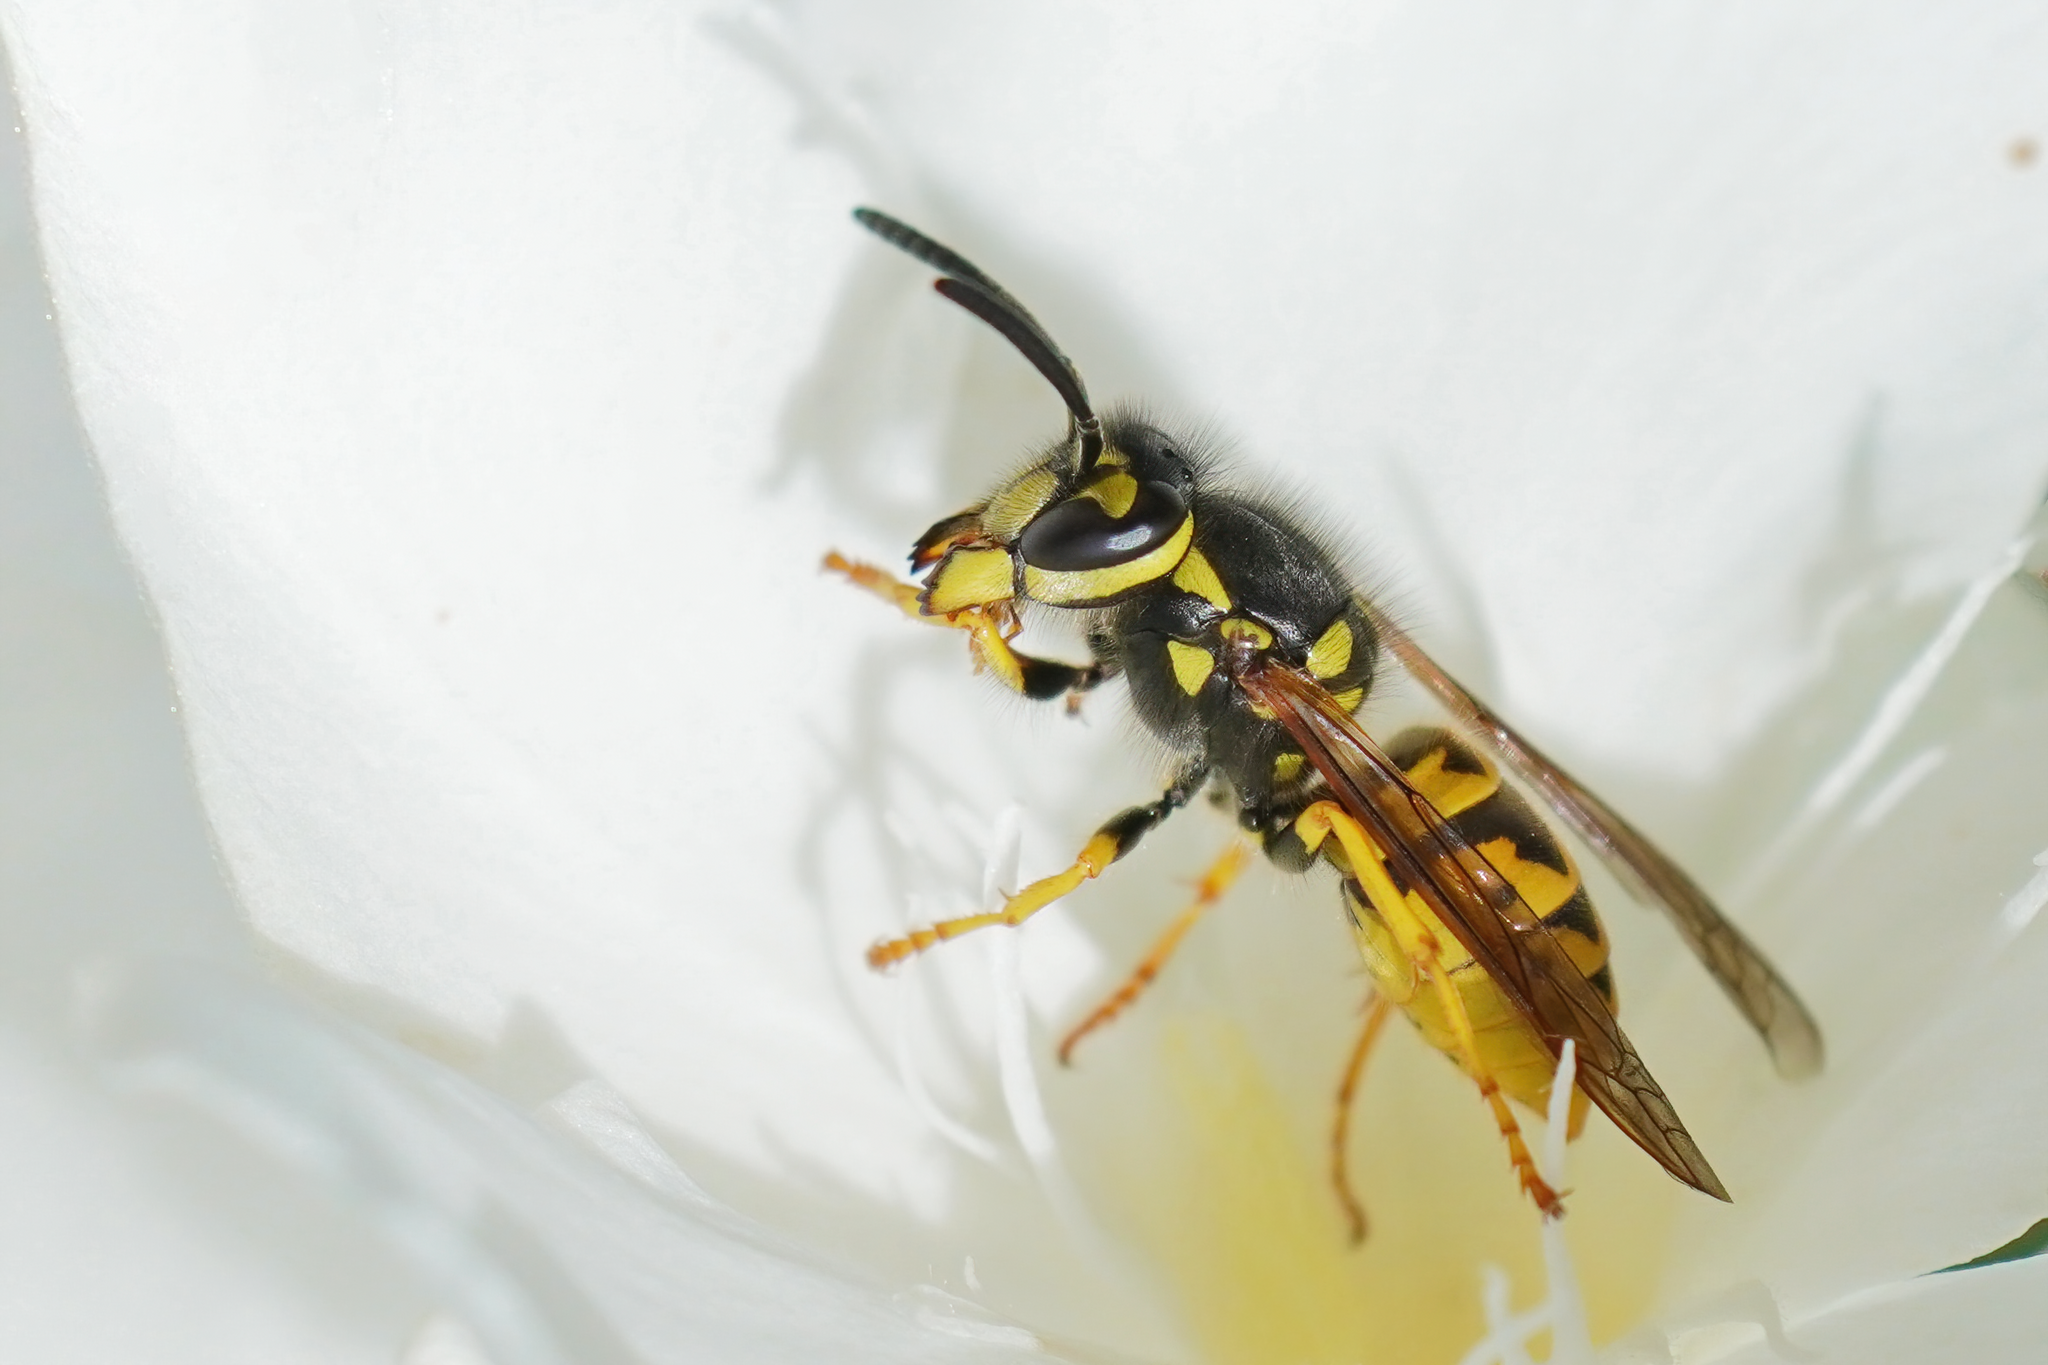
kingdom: Animalia
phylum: Arthropoda
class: Insecta
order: Hymenoptera
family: Vespidae
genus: Vespula
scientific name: Vespula germanica
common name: German wasp
